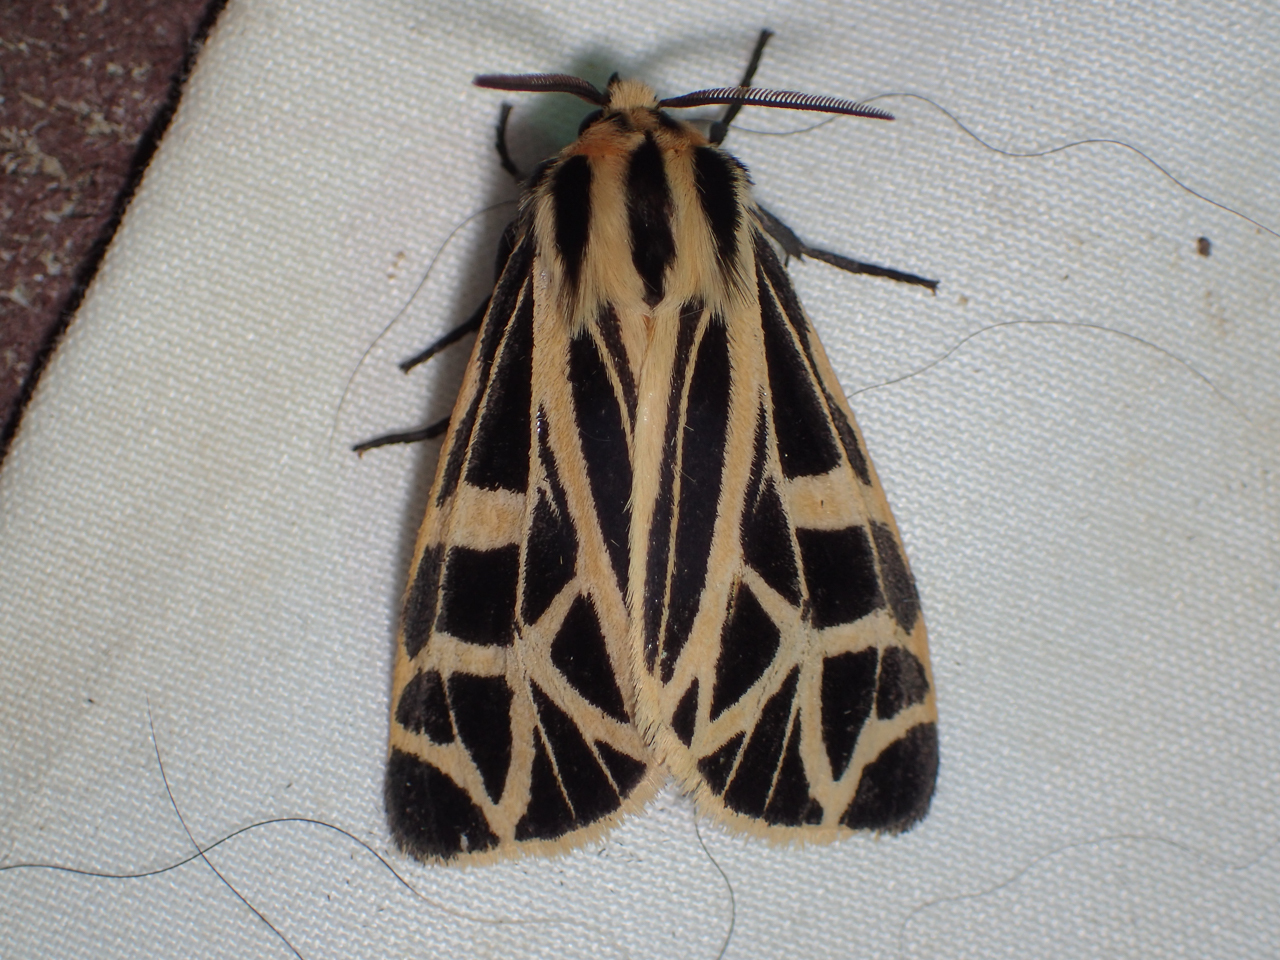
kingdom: Animalia
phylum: Arthropoda
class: Insecta
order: Lepidoptera
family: Erebidae
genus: Apantesis
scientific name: Apantesis
